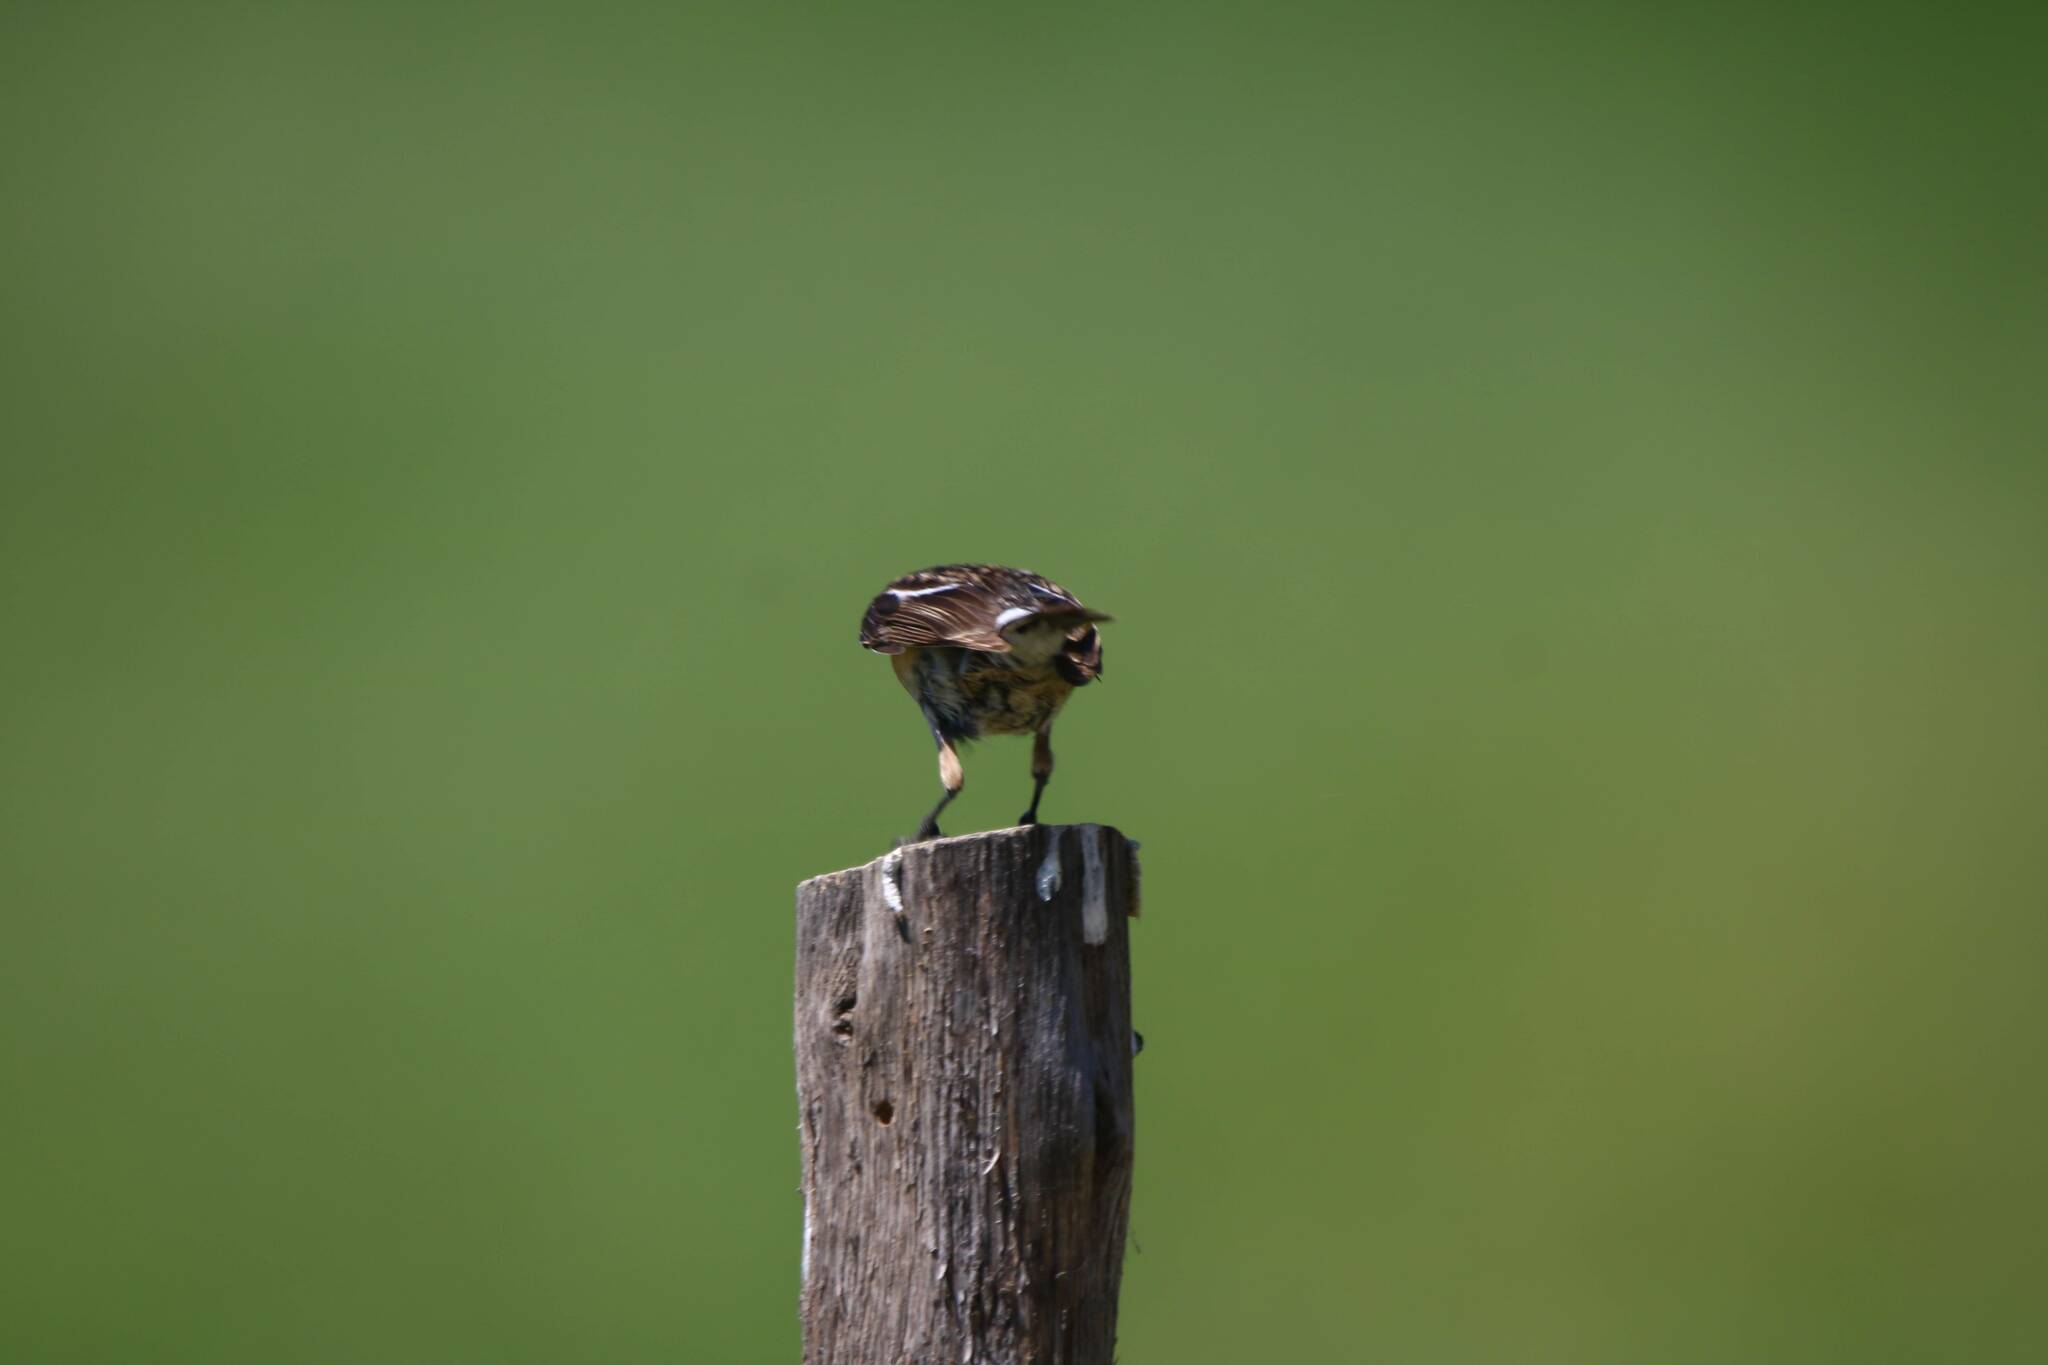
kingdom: Animalia
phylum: Chordata
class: Aves
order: Passeriformes
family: Muscicapidae
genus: Saxicola
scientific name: Saxicola rubicola
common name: European stonechat
